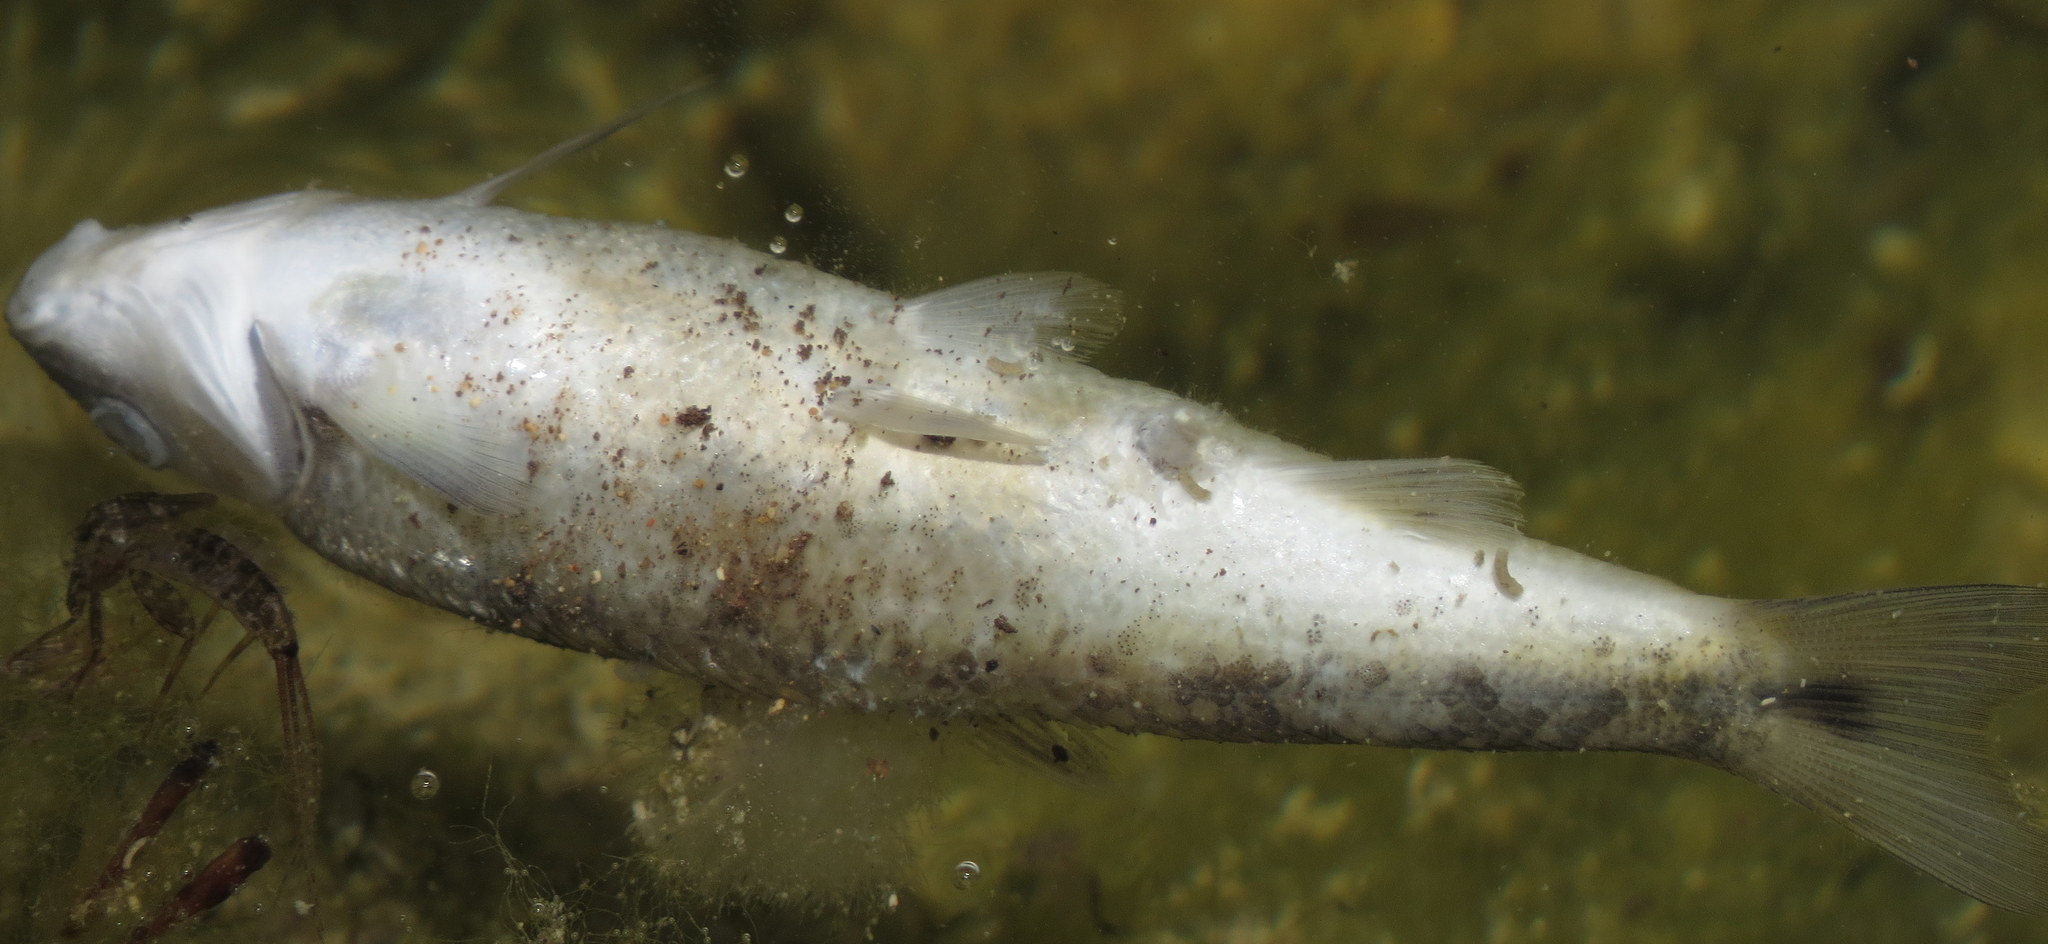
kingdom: Animalia
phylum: Chordata
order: Cypriniformes
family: Cyprinidae
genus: Campostoma
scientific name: Campostoma anomalum
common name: Central stoneroller
